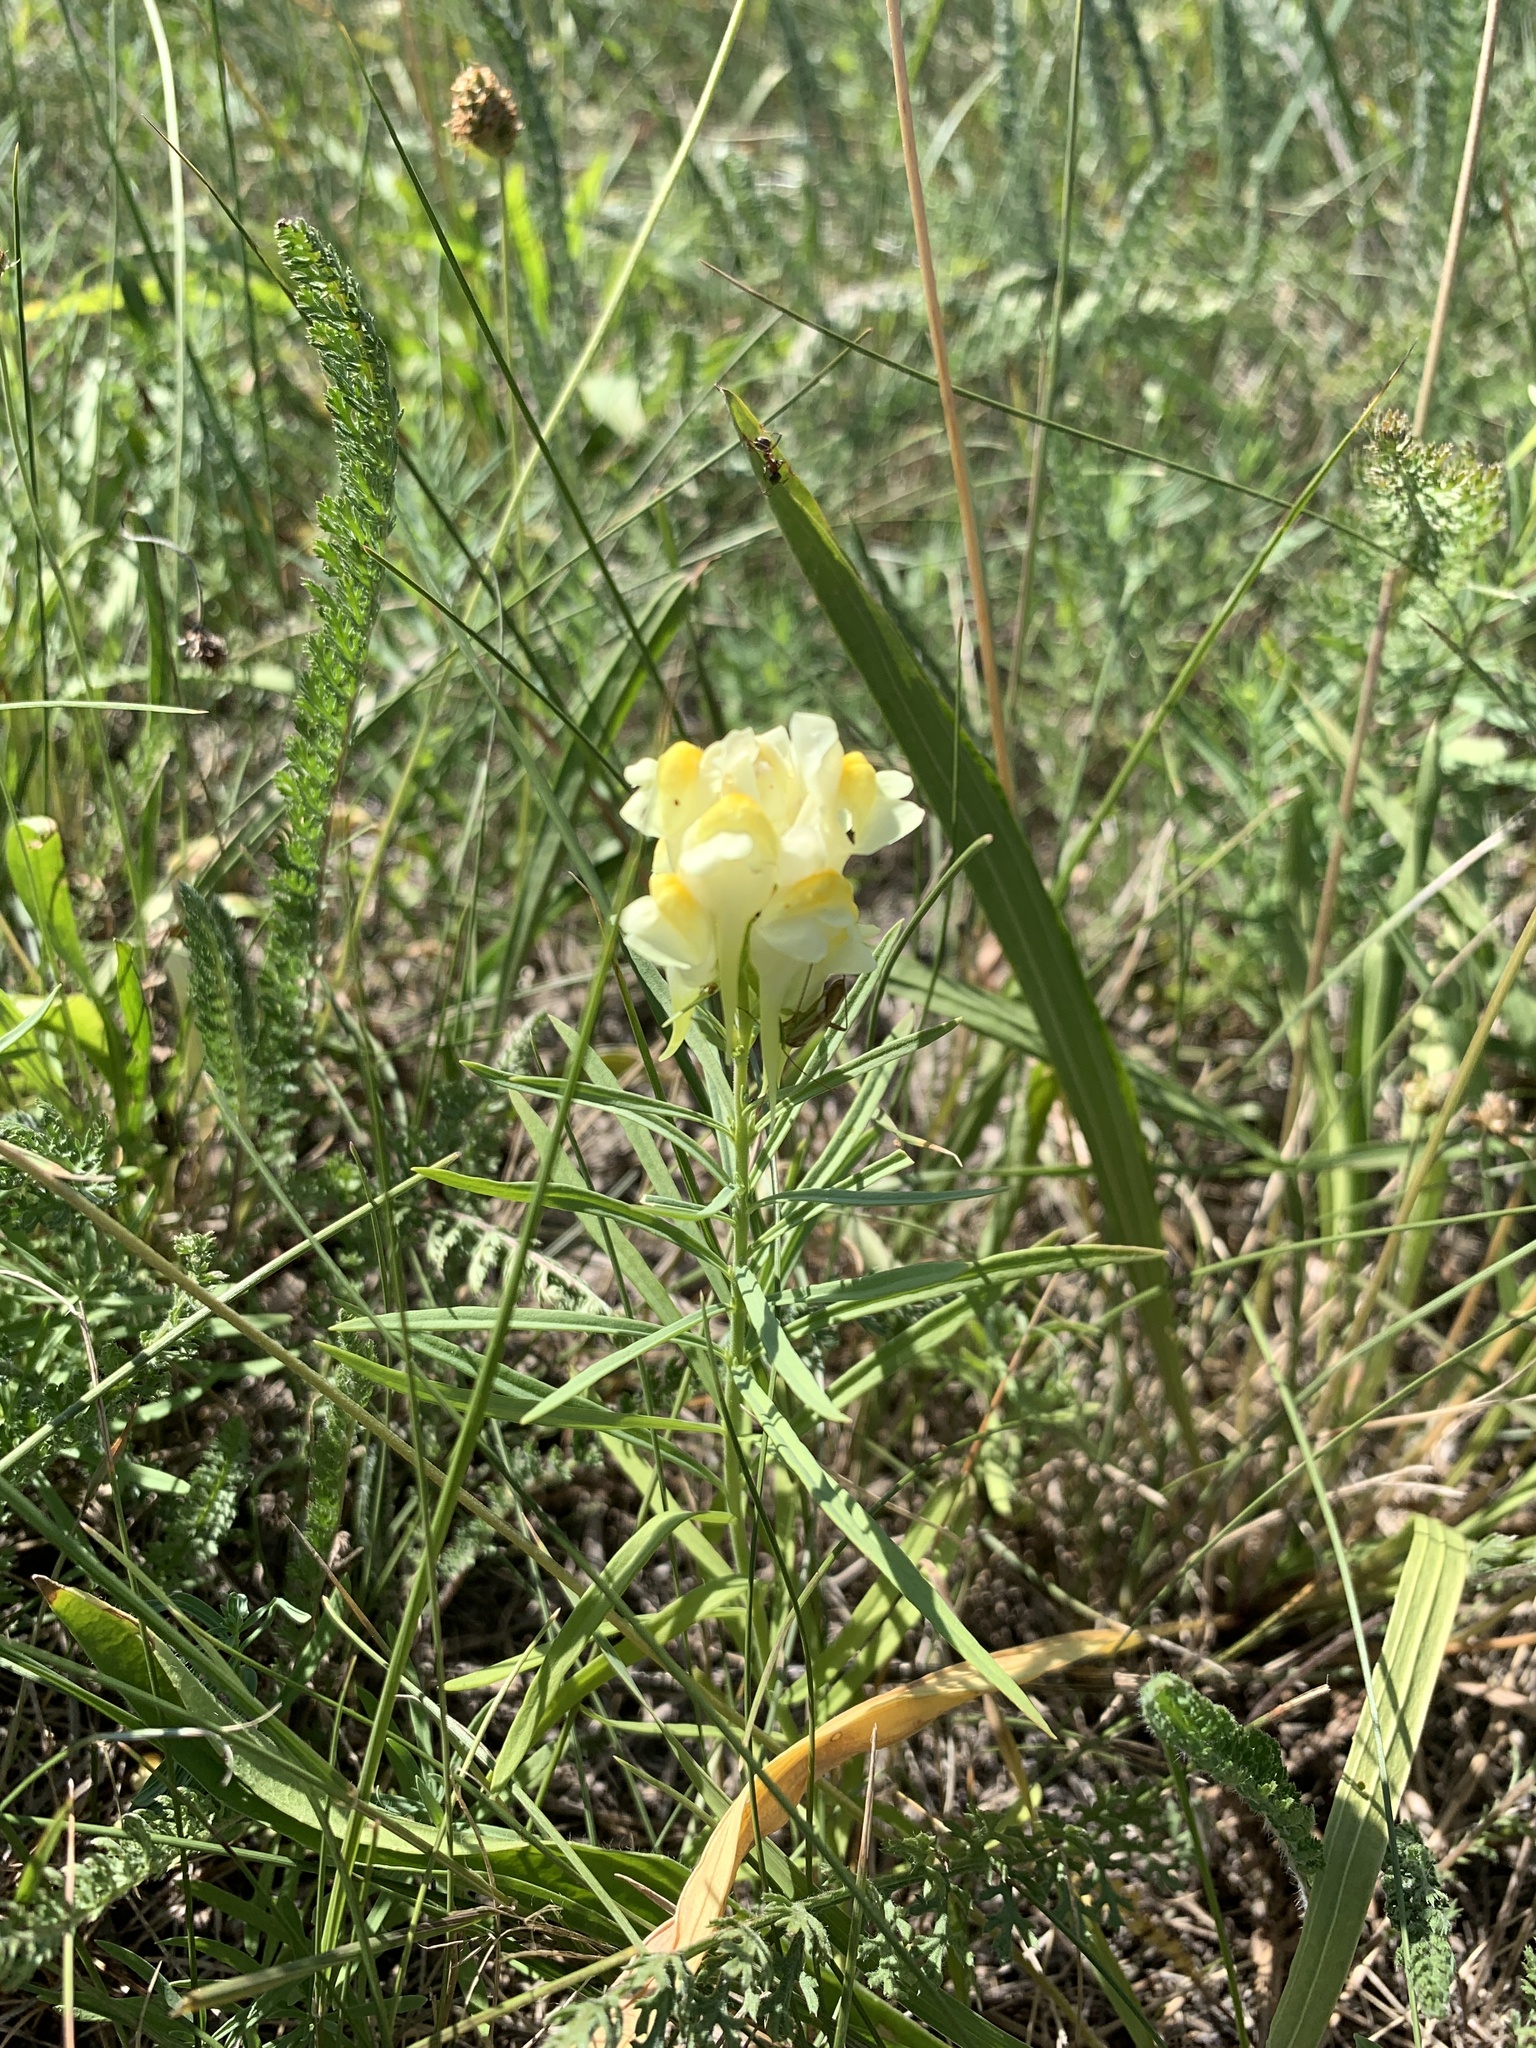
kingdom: Plantae
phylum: Tracheophyta
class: Magnoliopsida
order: Lamiales
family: Plantaginaceae
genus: Linaria
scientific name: Linaria vulgaris
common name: Butter and eggs
